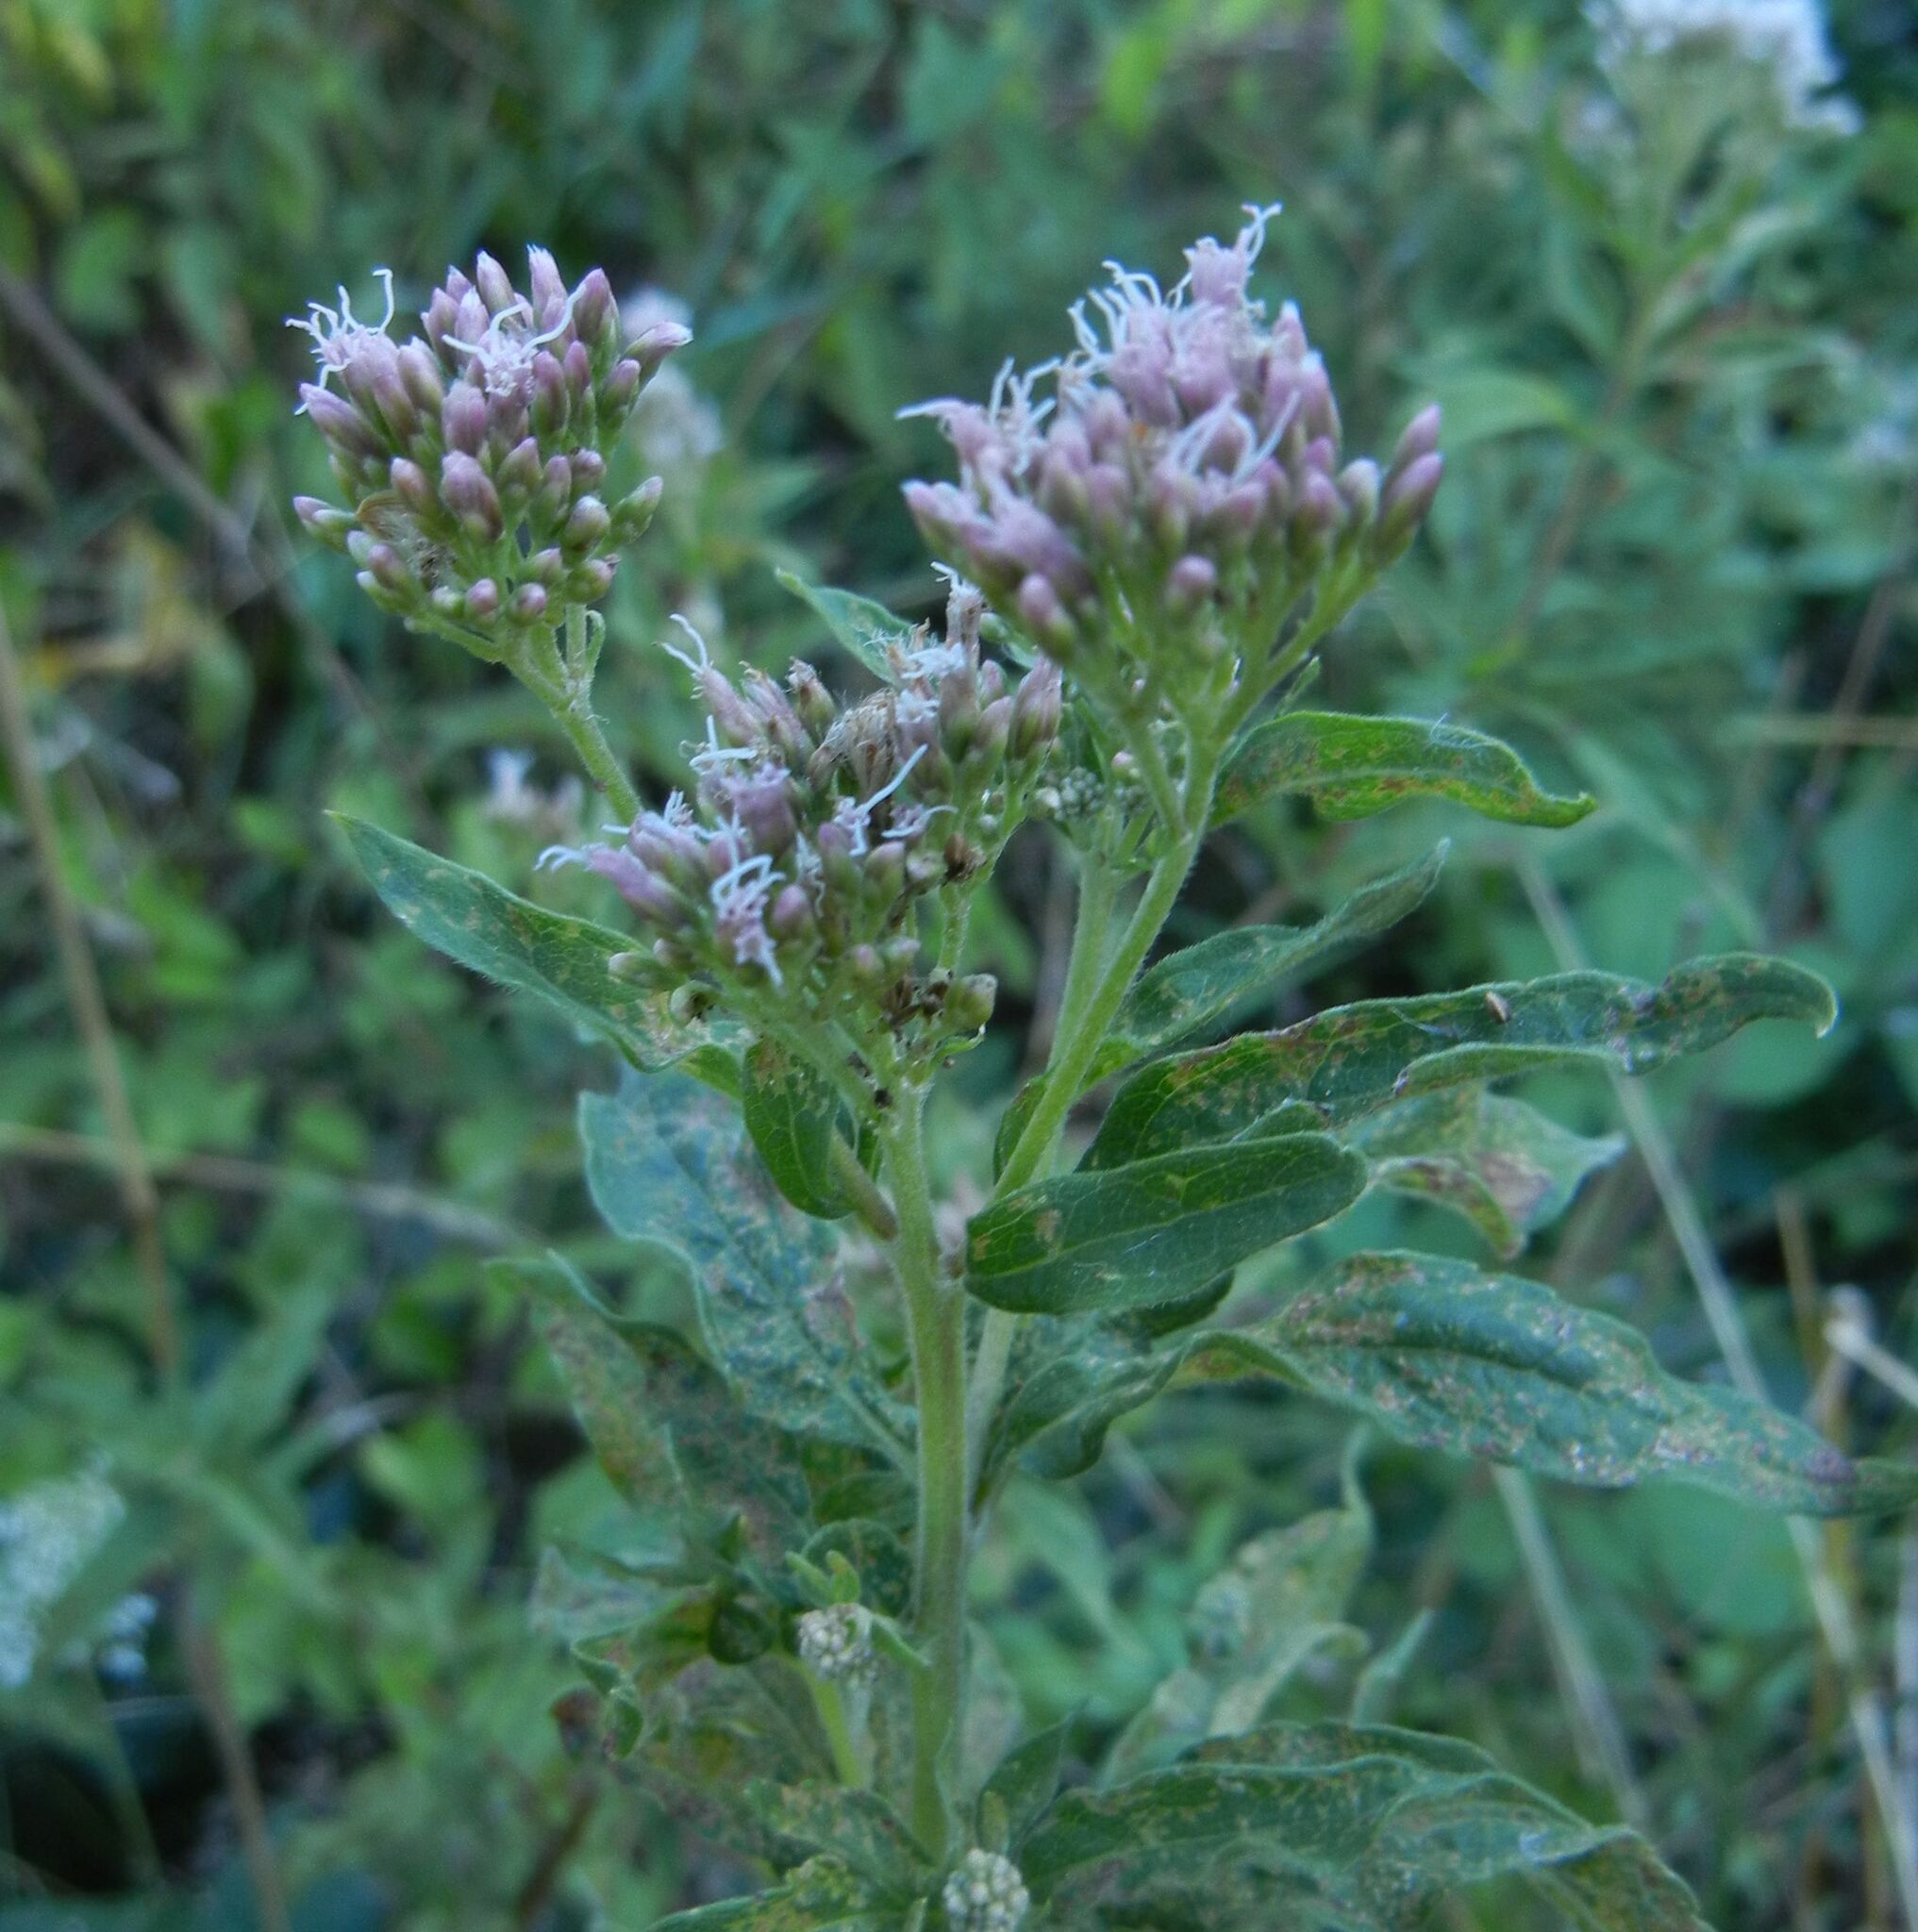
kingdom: Plantae
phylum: Tracheophyta
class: Magnoliopsida
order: Asterales
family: Asteraceae
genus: Eupatorium
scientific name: Eupatorium cannabinum
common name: Hemp-agrimony
